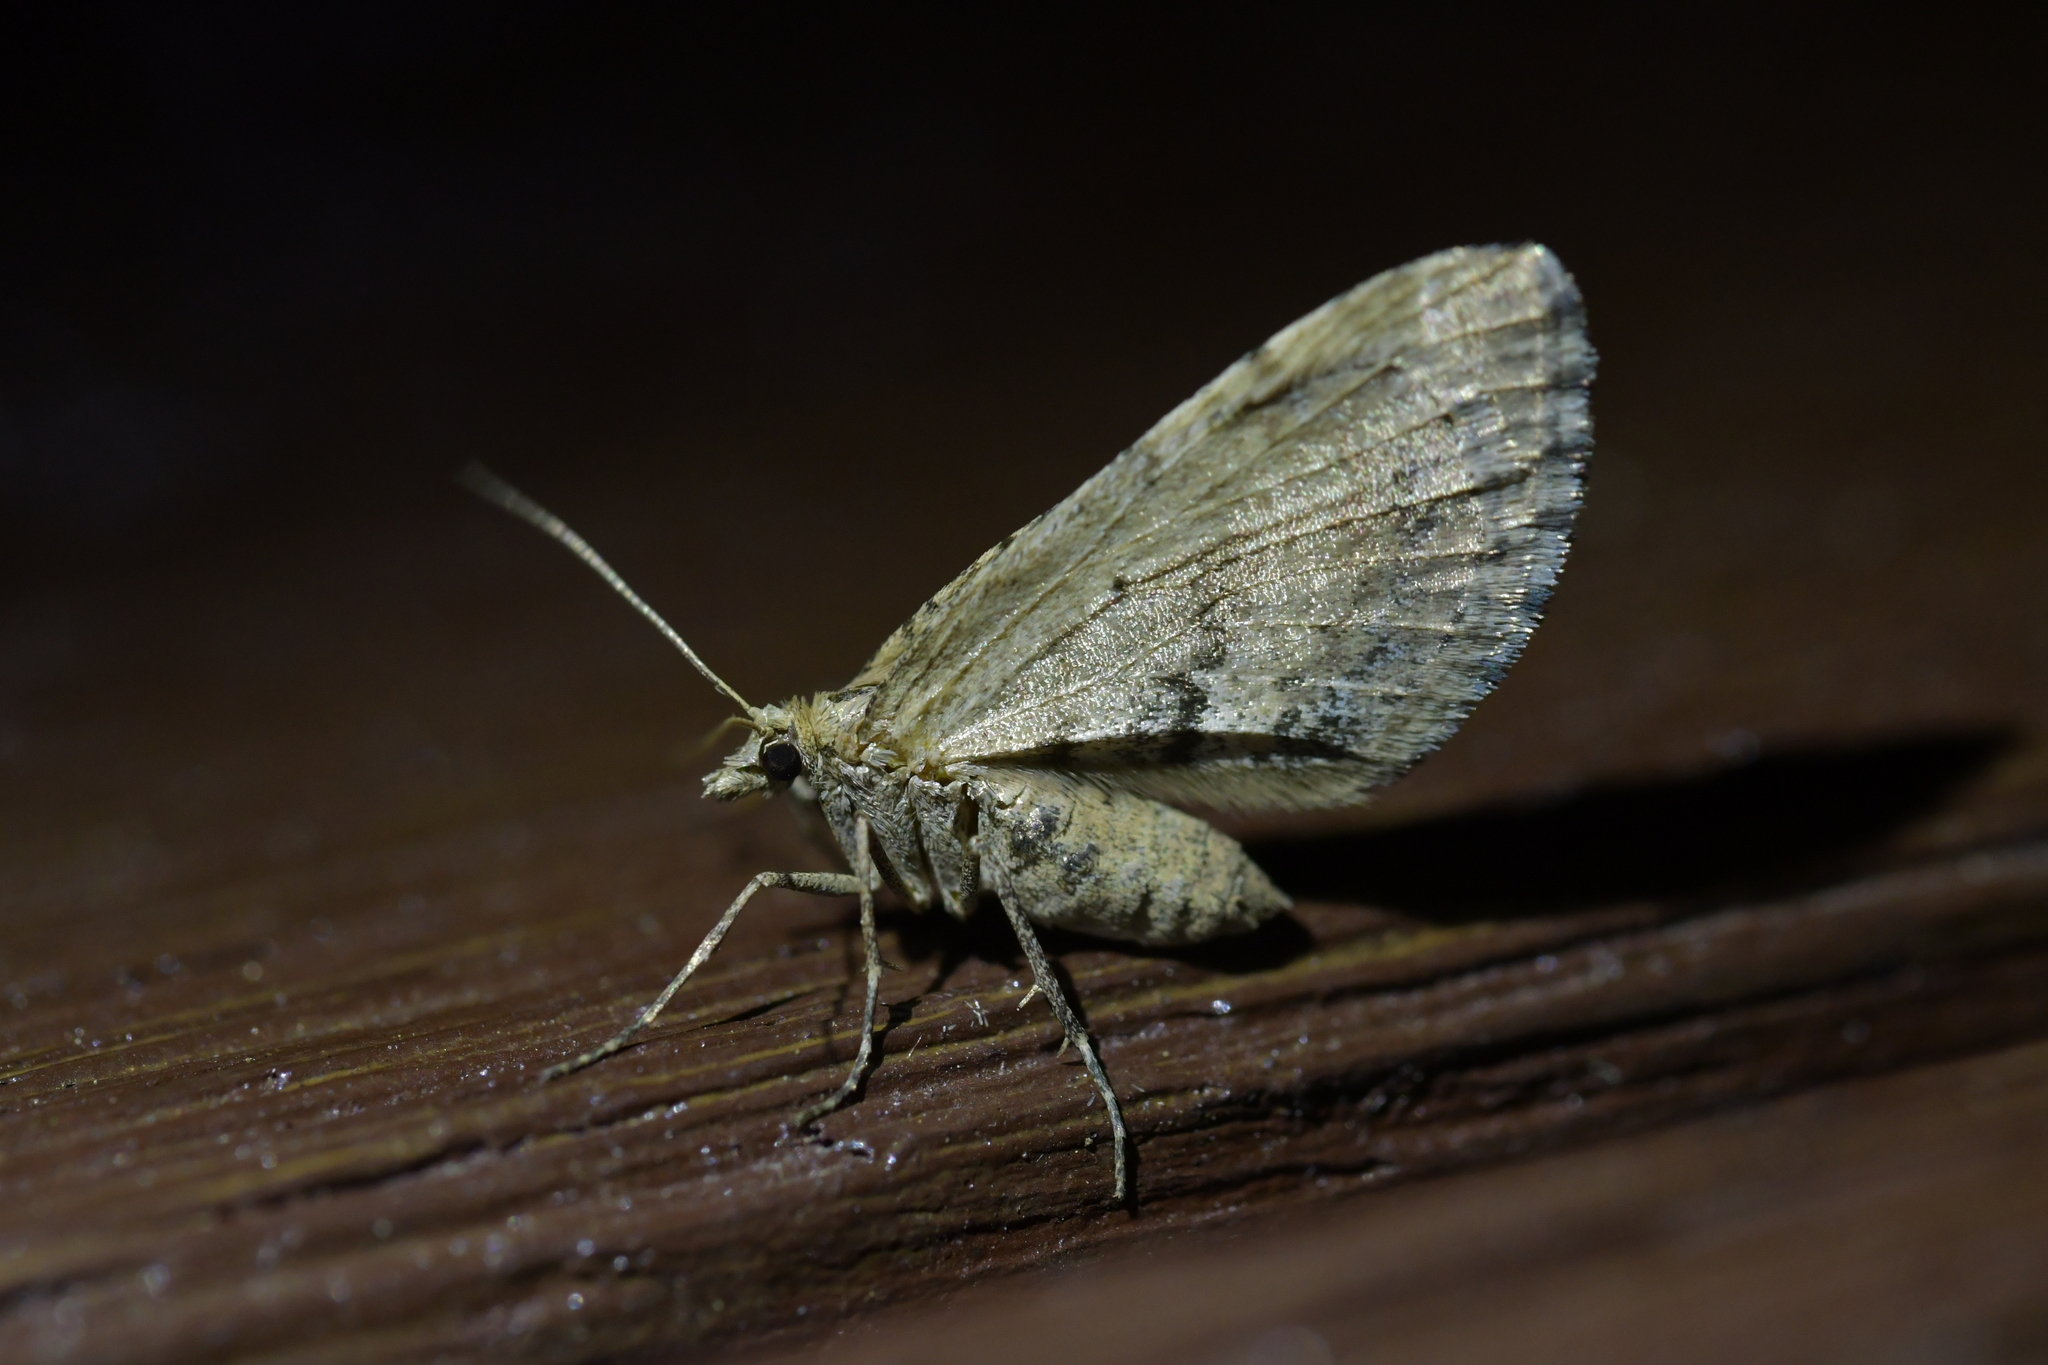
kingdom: Animalia
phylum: Arthropoda
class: Insecta
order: Lepidoptera
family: Geometridae
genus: Asaphodes
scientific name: Asaphodes aegrota
